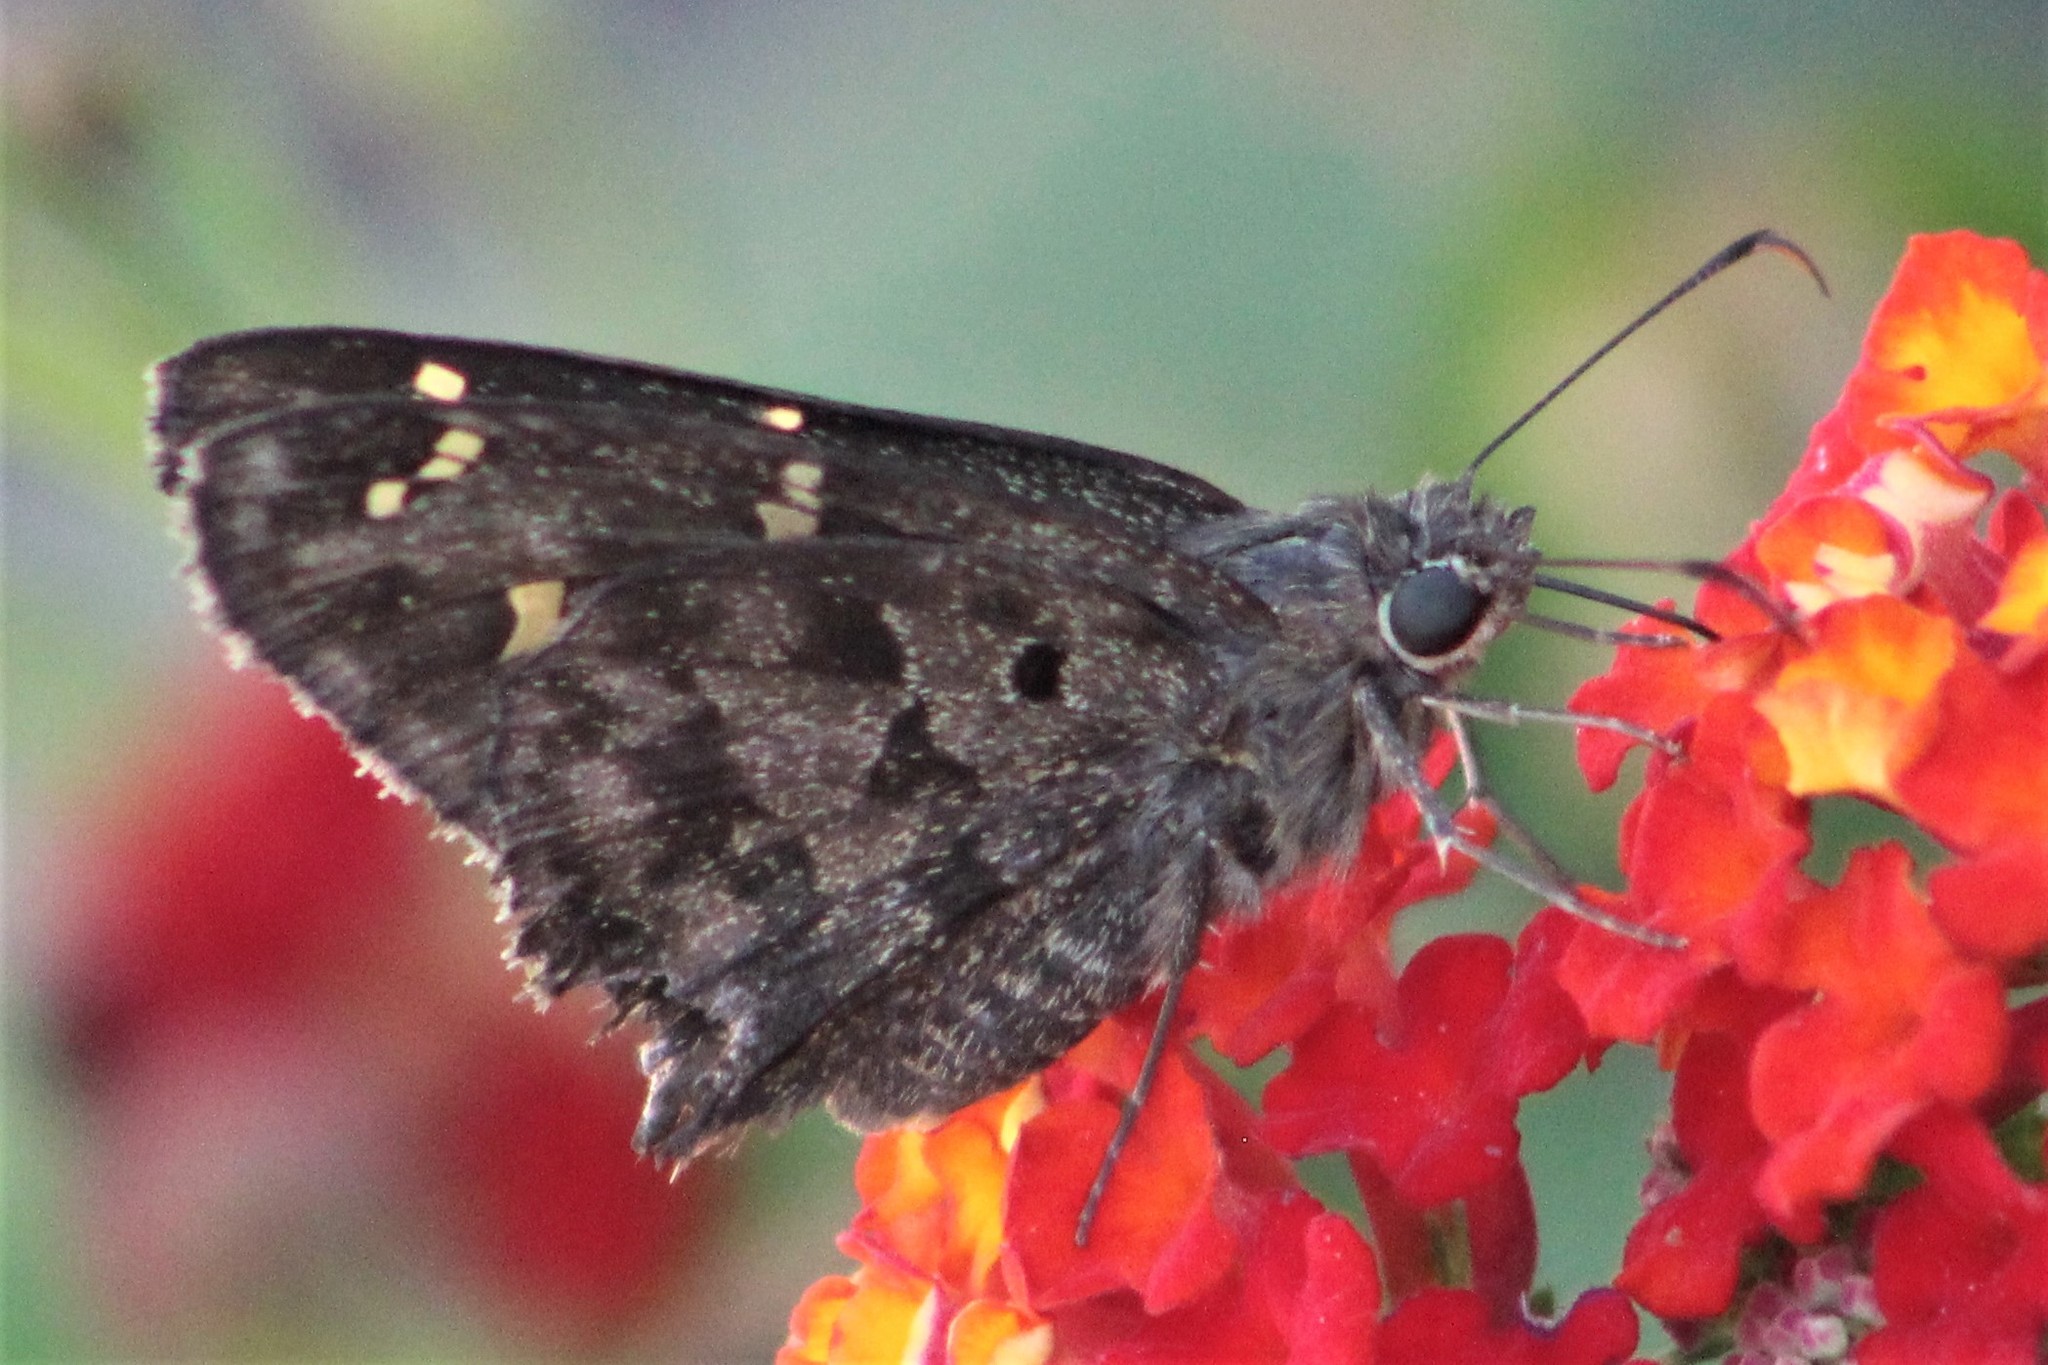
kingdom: Animalia
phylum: Arthropoda
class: Insecta
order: Lepidoptera
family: Hesperiidae
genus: Thorybes
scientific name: Thorybes
